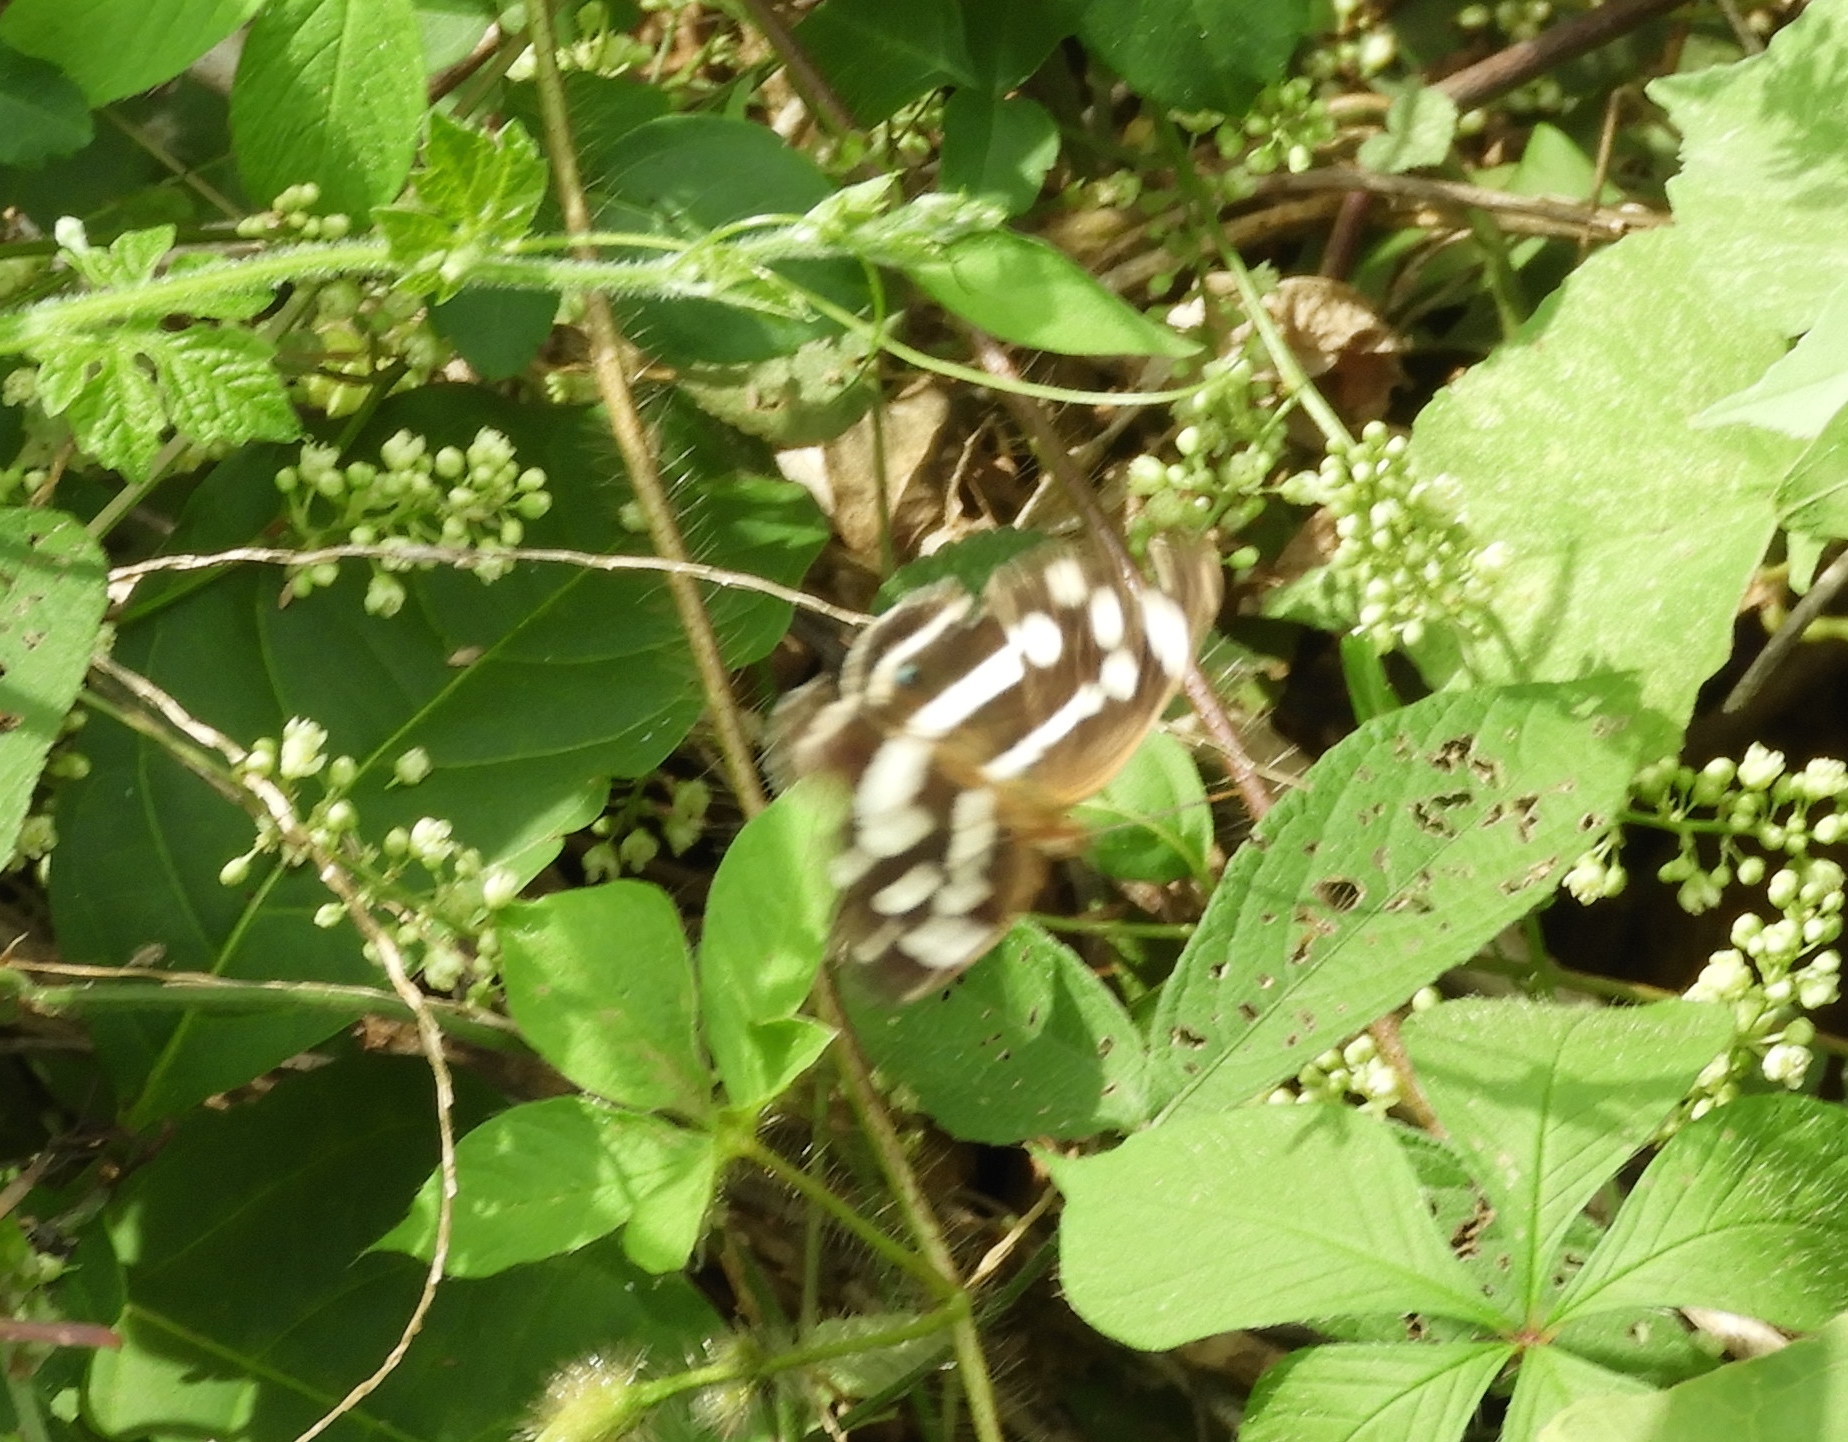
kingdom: Animalia
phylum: Arthropoda
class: Insecta
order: Lepidoptera
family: Nymphalidae
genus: Dynamine
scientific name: Dynamine mylitta
